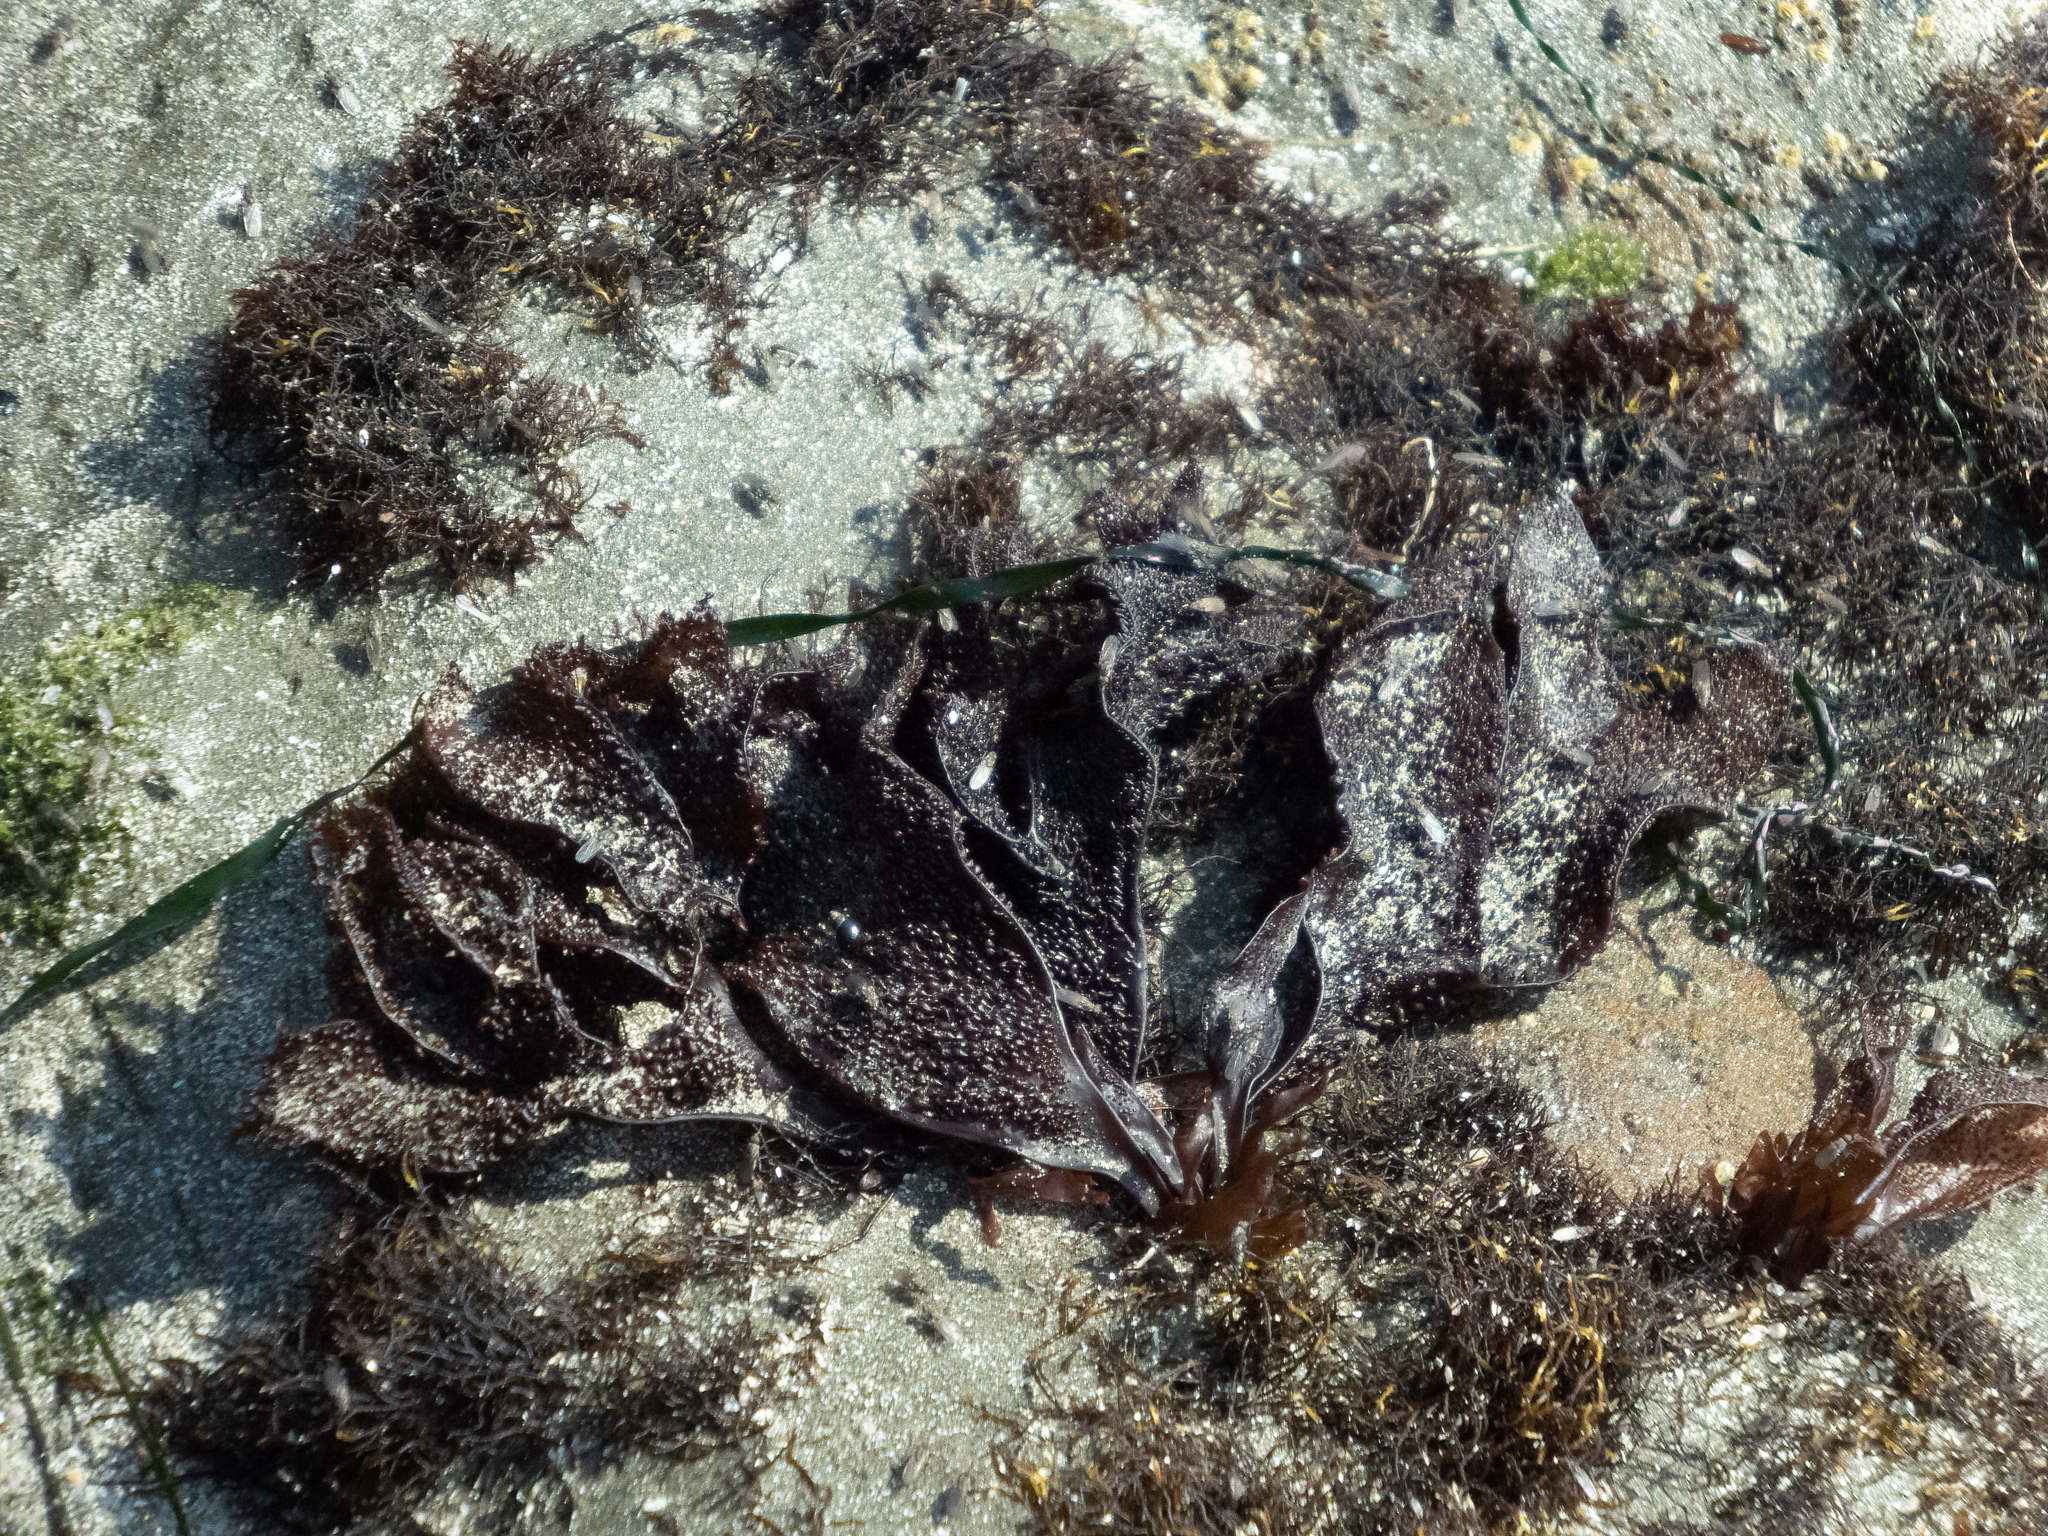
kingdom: Plantae
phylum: Rhodophyta
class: Florideophyceae
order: Gigartinales
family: Phyllophoraceae
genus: Mastocarpus
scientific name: Mastocarpus papillatus
